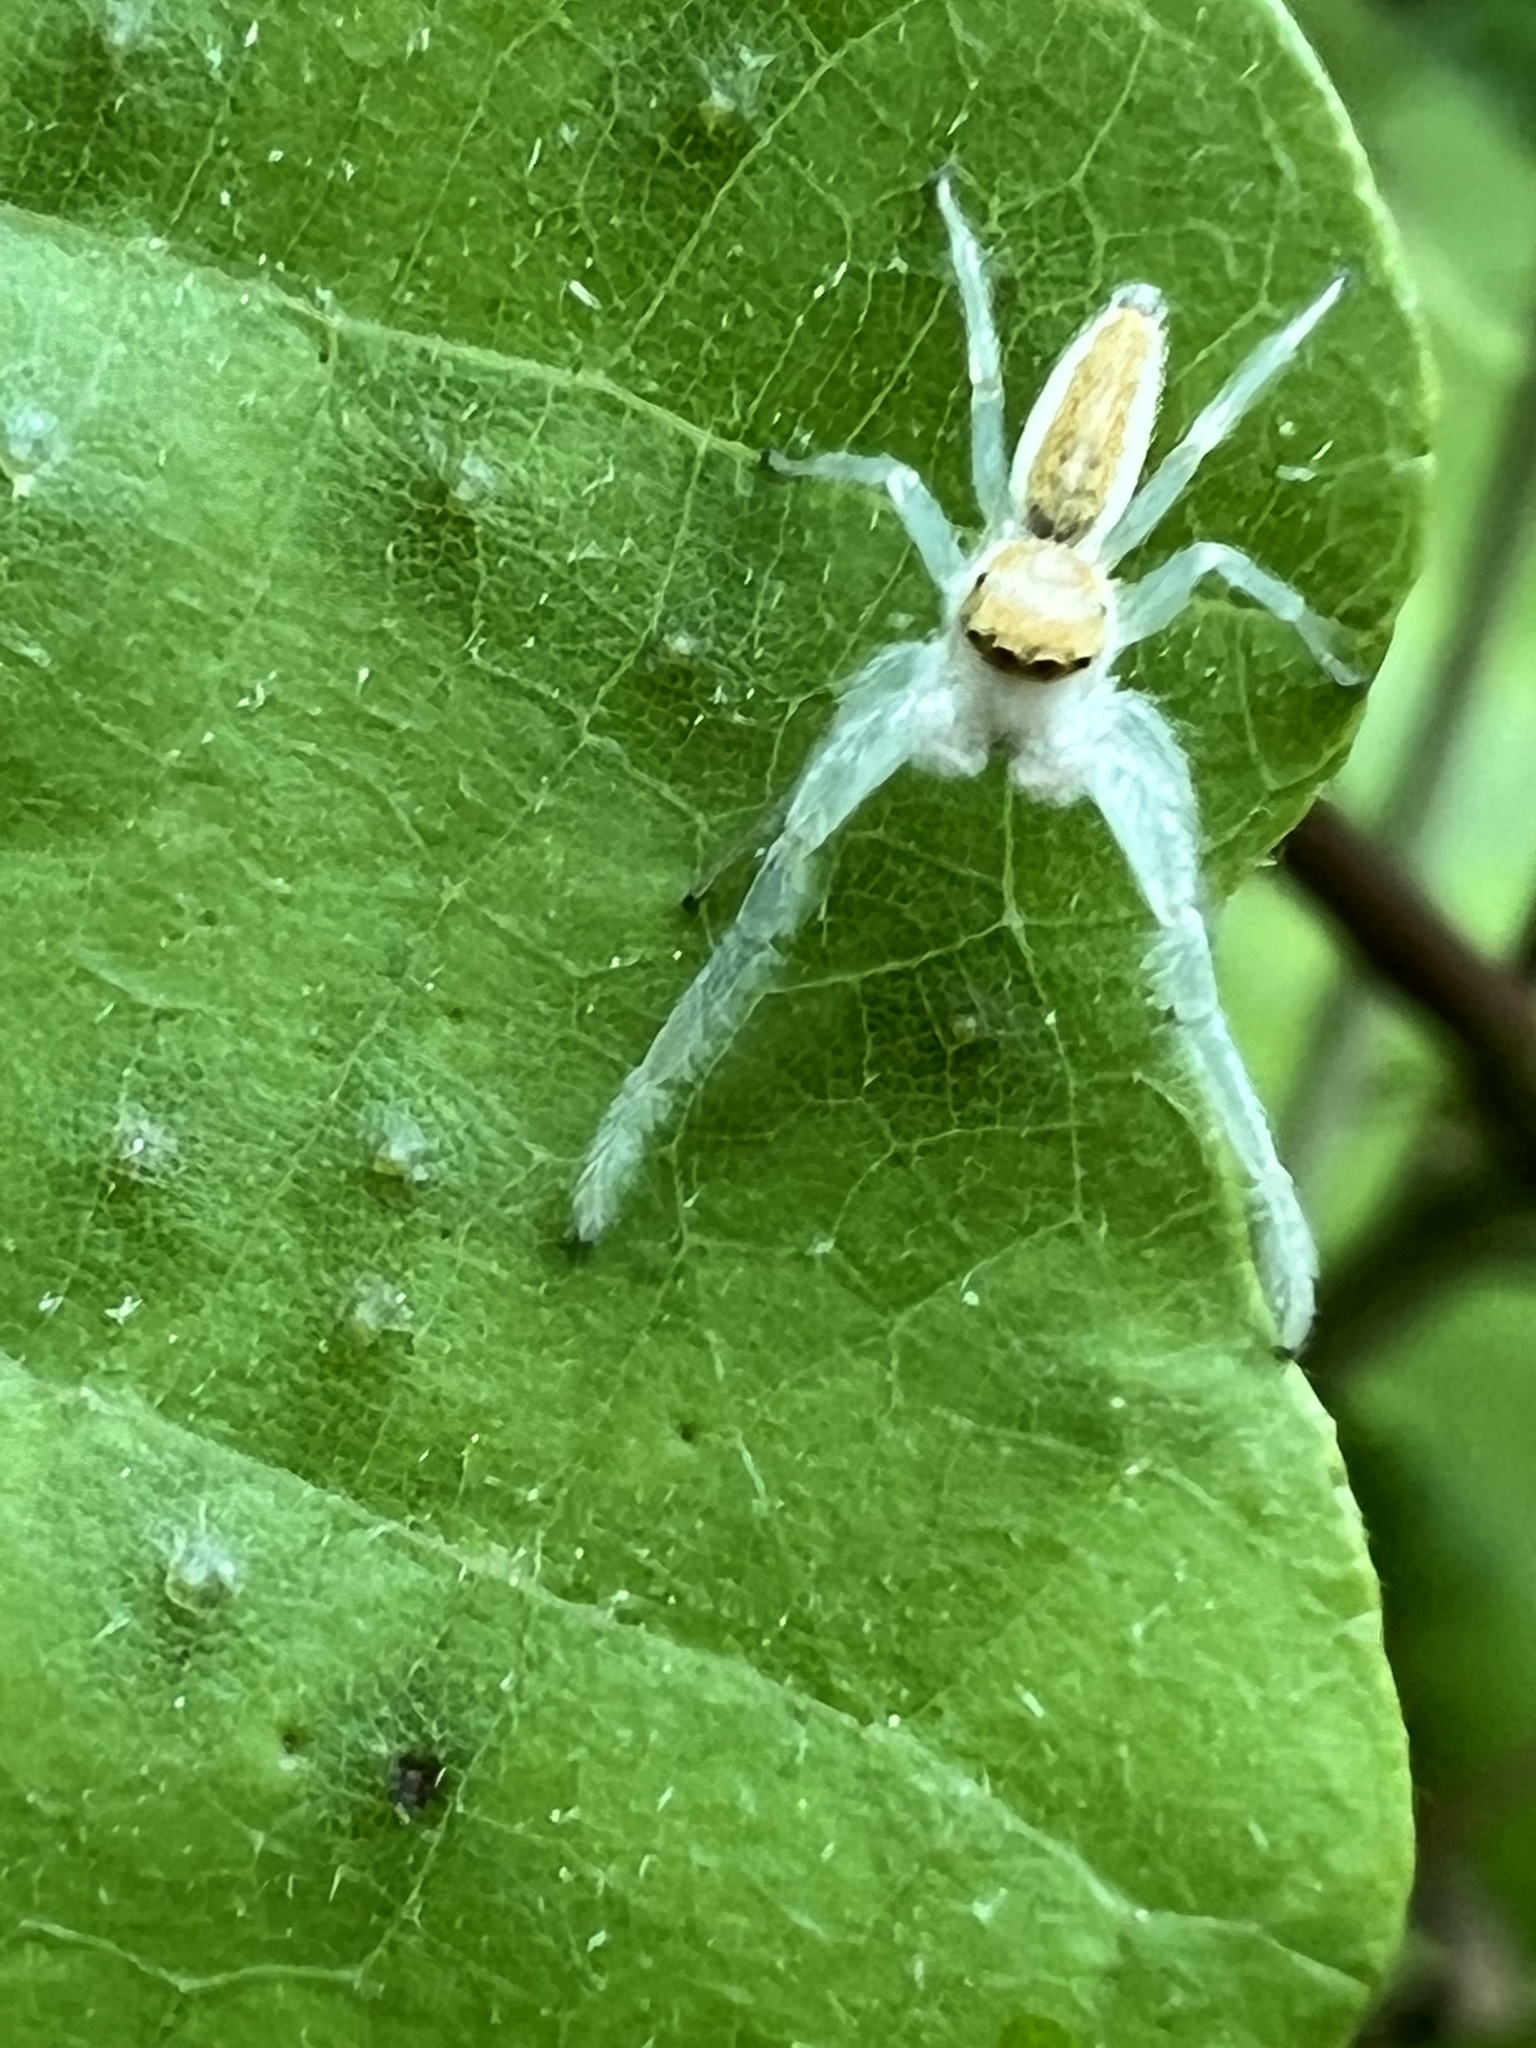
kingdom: Animalia
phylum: Arthropoda
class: Arachnida
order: Araneae
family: Salticidae
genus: Hentzia
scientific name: Hentzia mitrata
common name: White-jawed jumping spider
